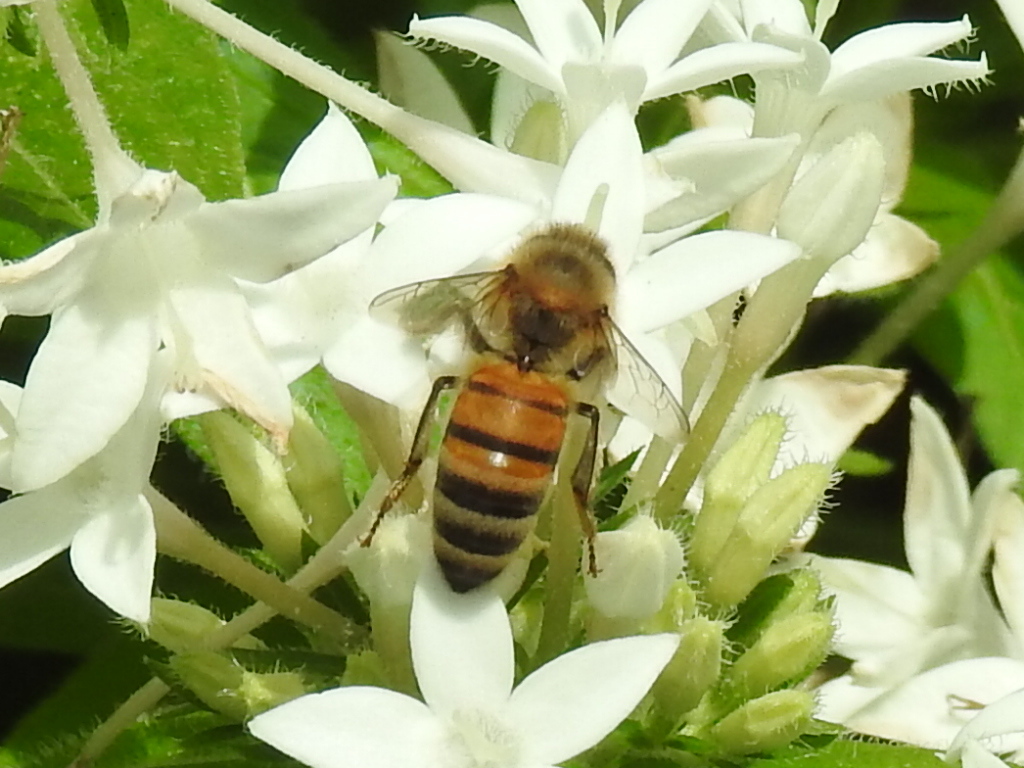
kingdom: Animalia
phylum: Arthropoda
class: Insecta
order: Hymenoptera
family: Apidae
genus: Apis
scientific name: Apis mellifera
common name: Honey bee
